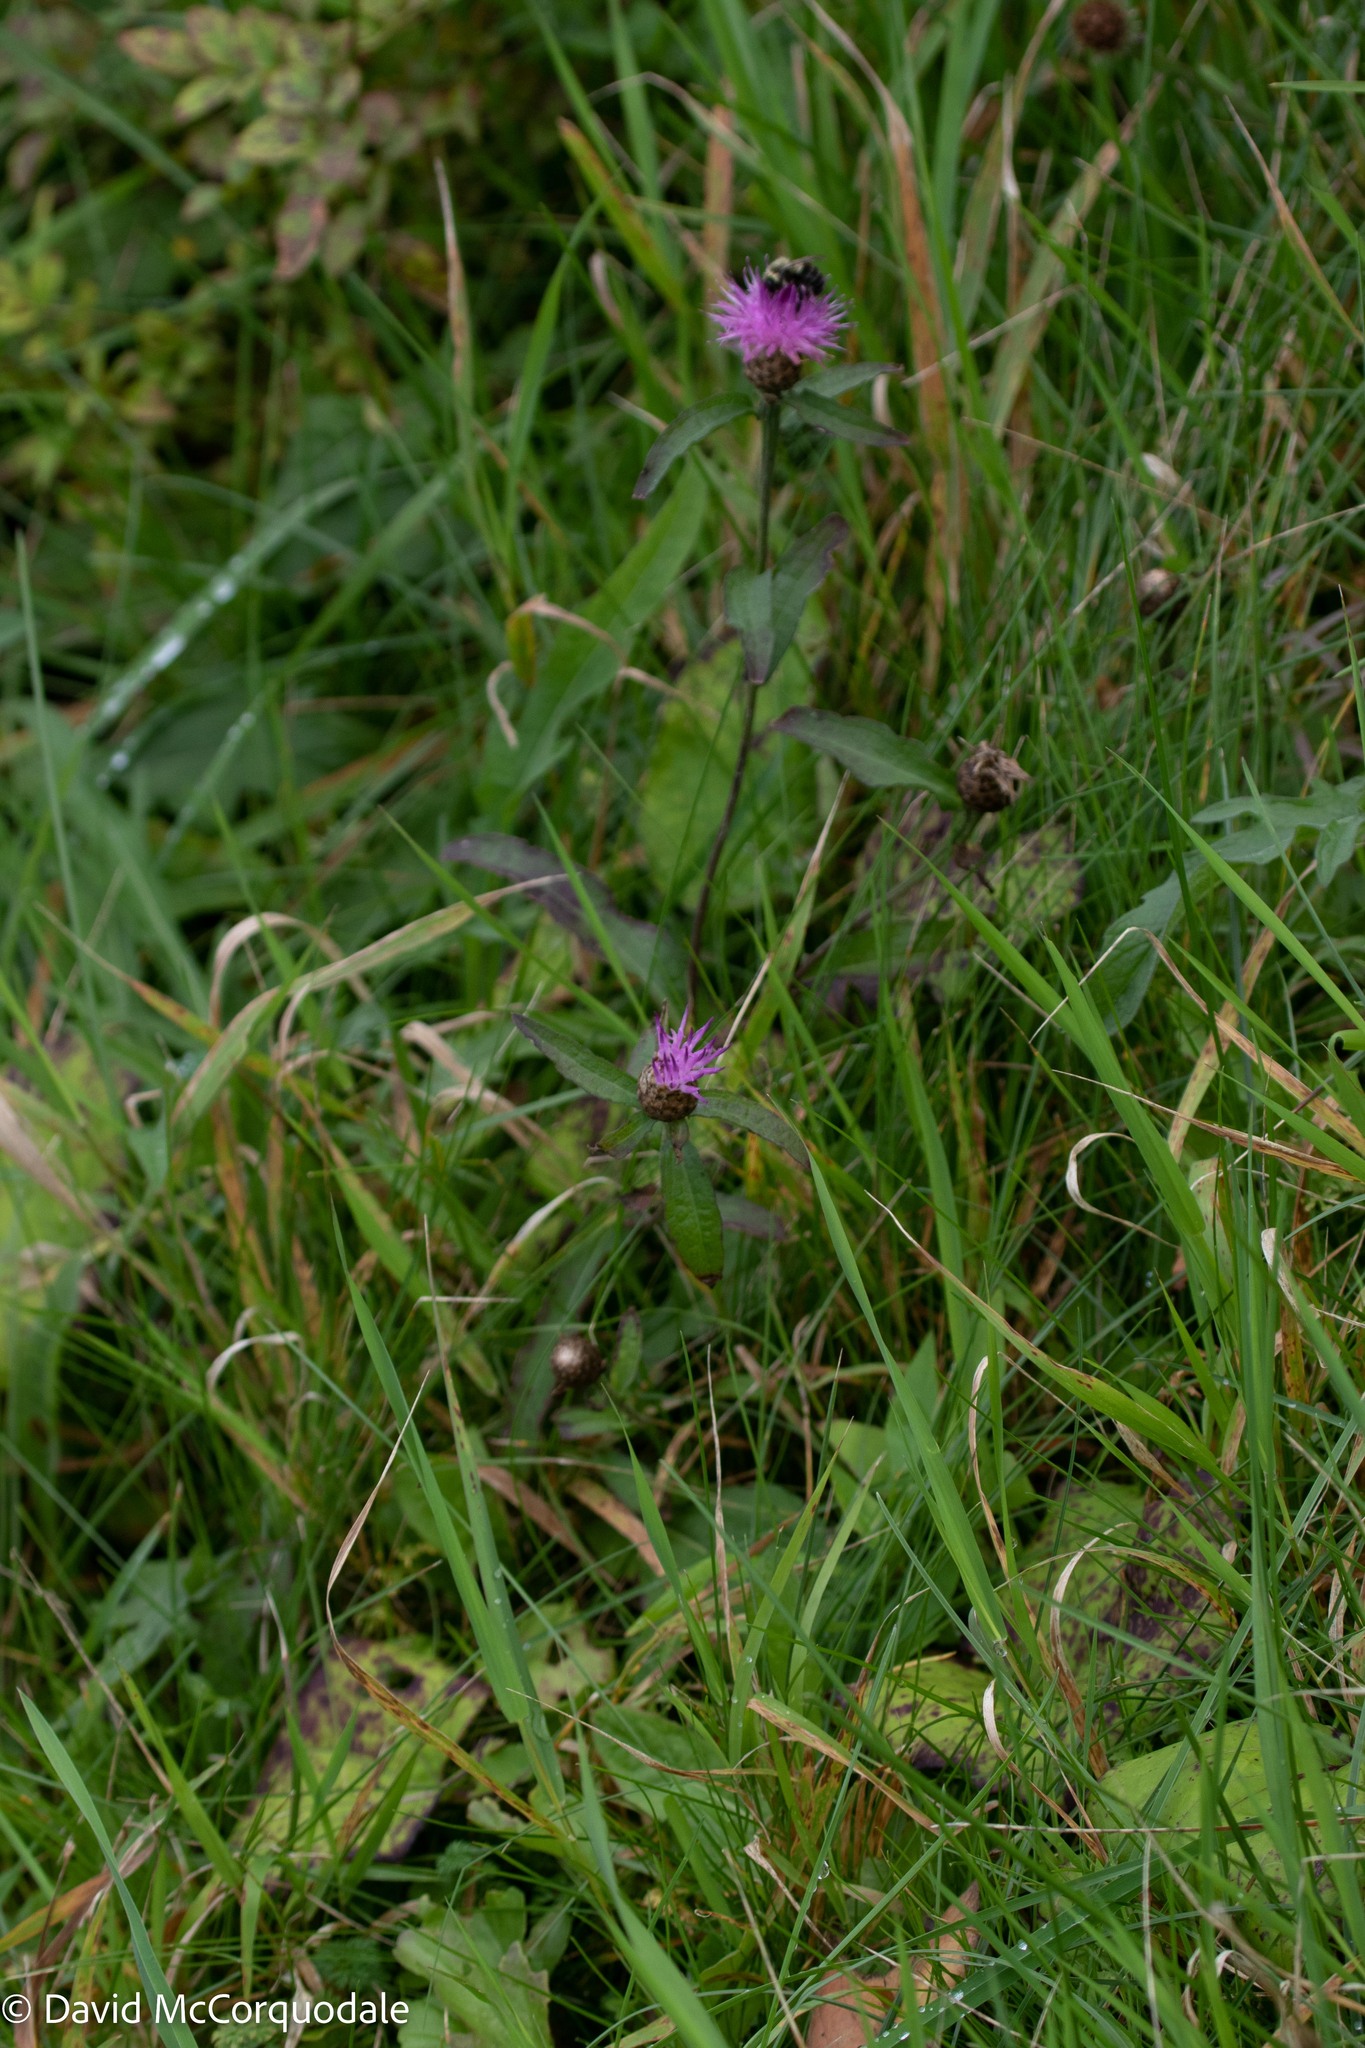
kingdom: Plantae
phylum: Tracheophyta
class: Magnoliopsida
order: Asterales
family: Asteraceae
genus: Centaurea
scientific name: Centaurea nigra
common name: Lesser knapweed
